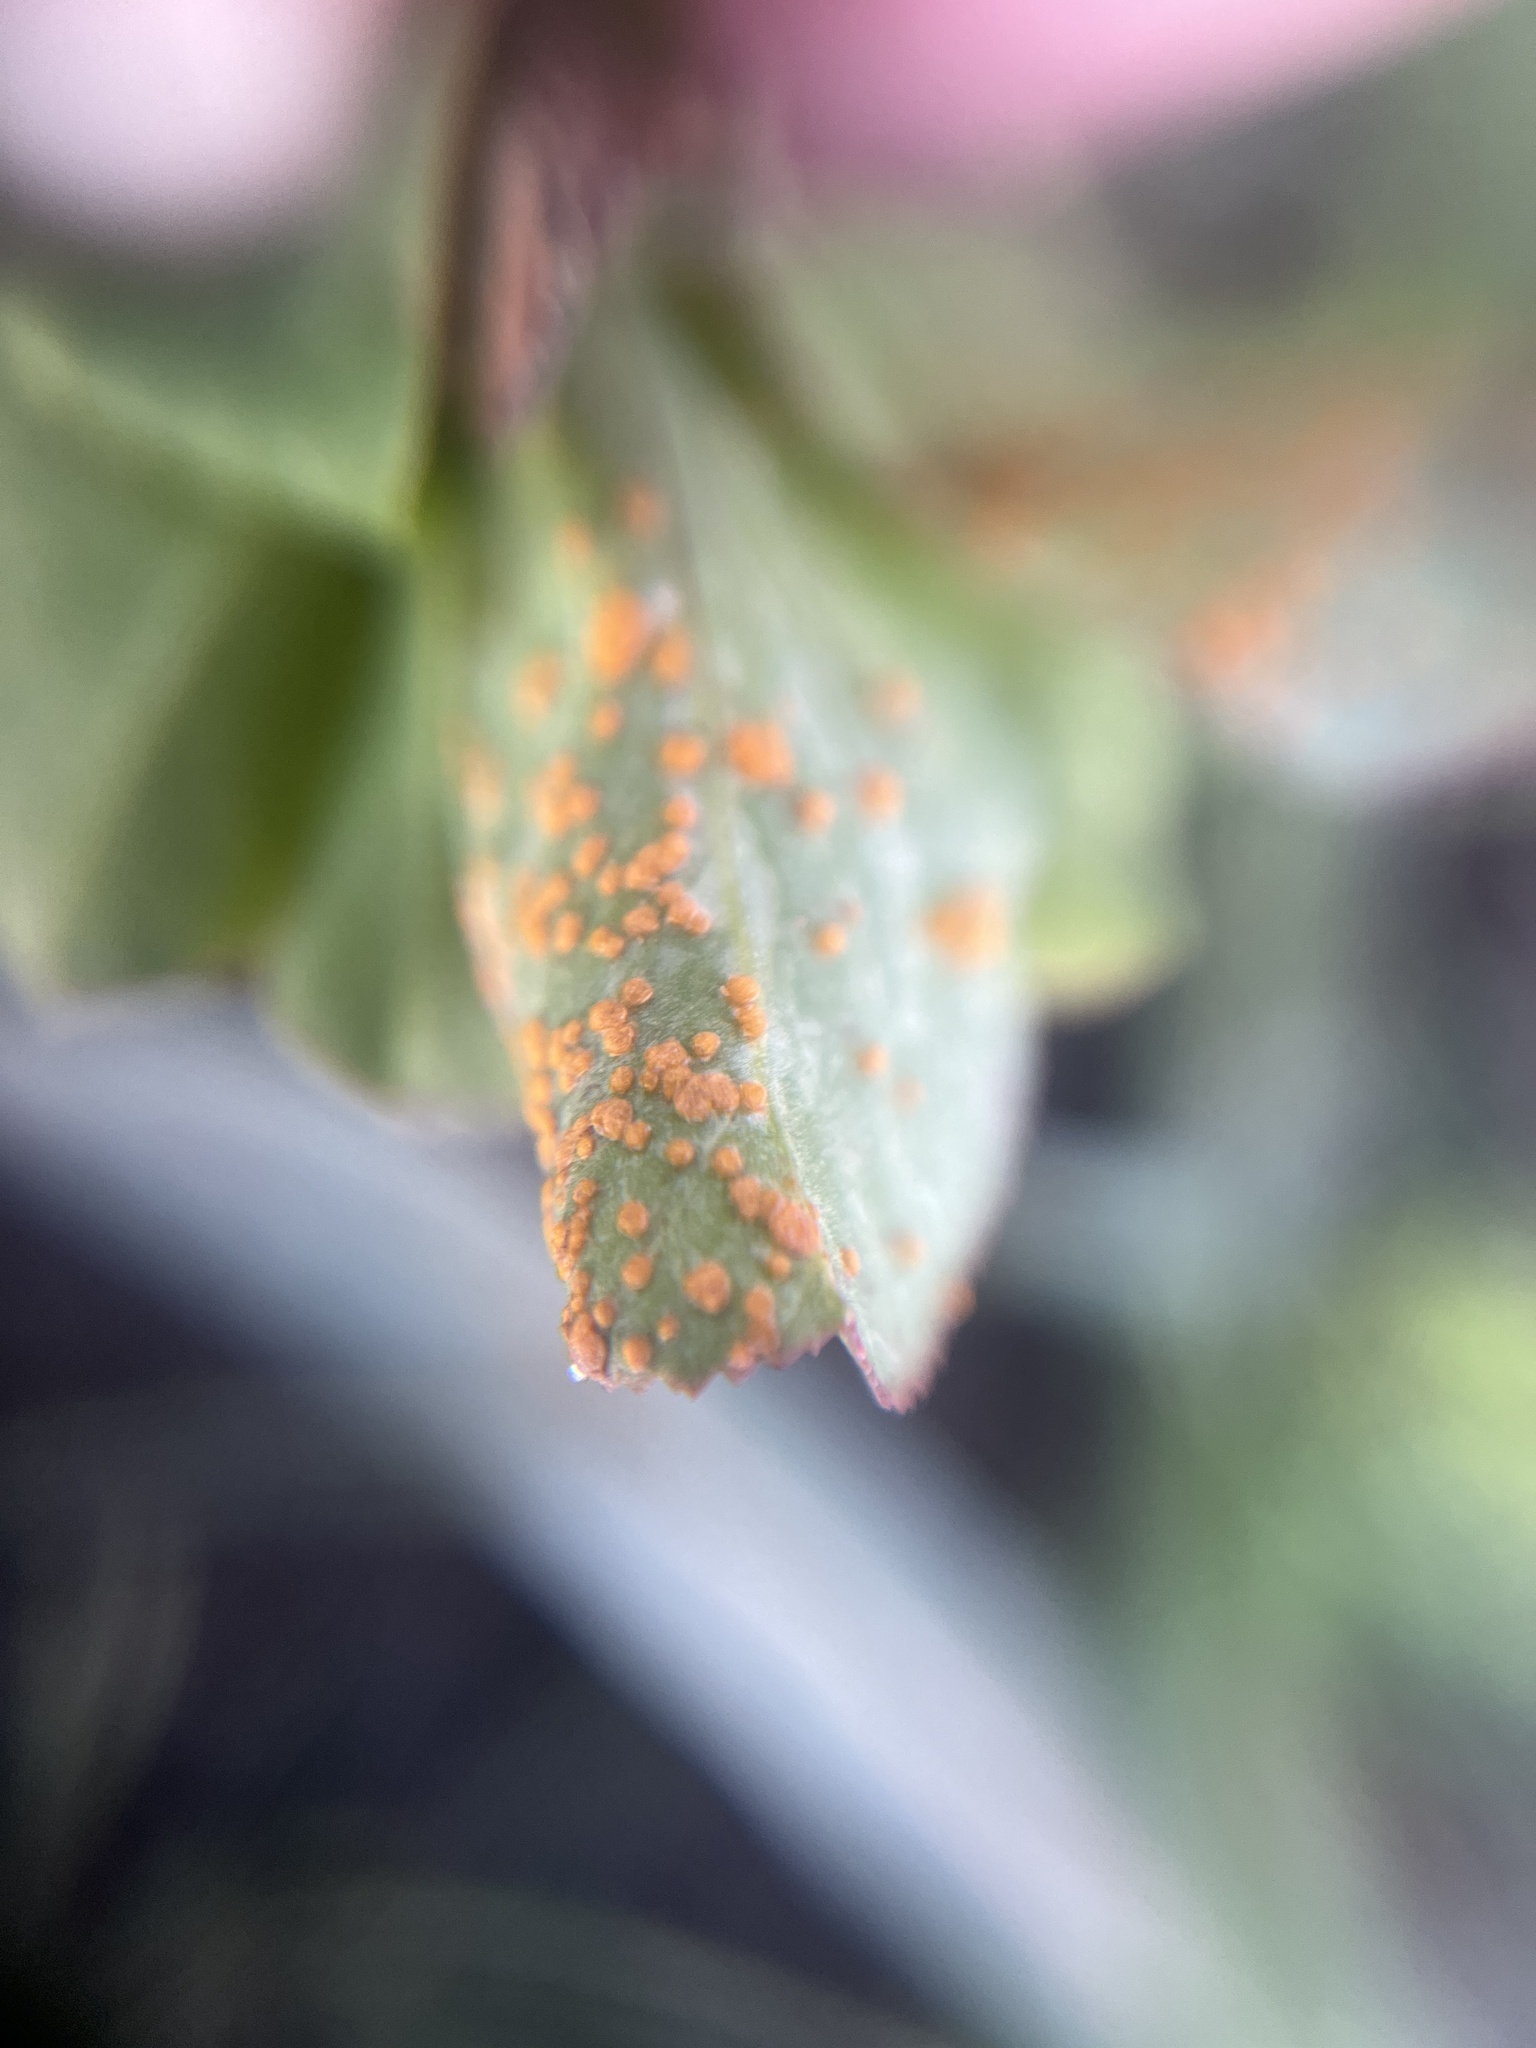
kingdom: Fungi
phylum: Basidiomycota
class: Pucciniomycetes
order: Pucciniales
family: Melampsoraceae
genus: Melampsora
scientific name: Melampsora euphorbiae
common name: Spurge rust
